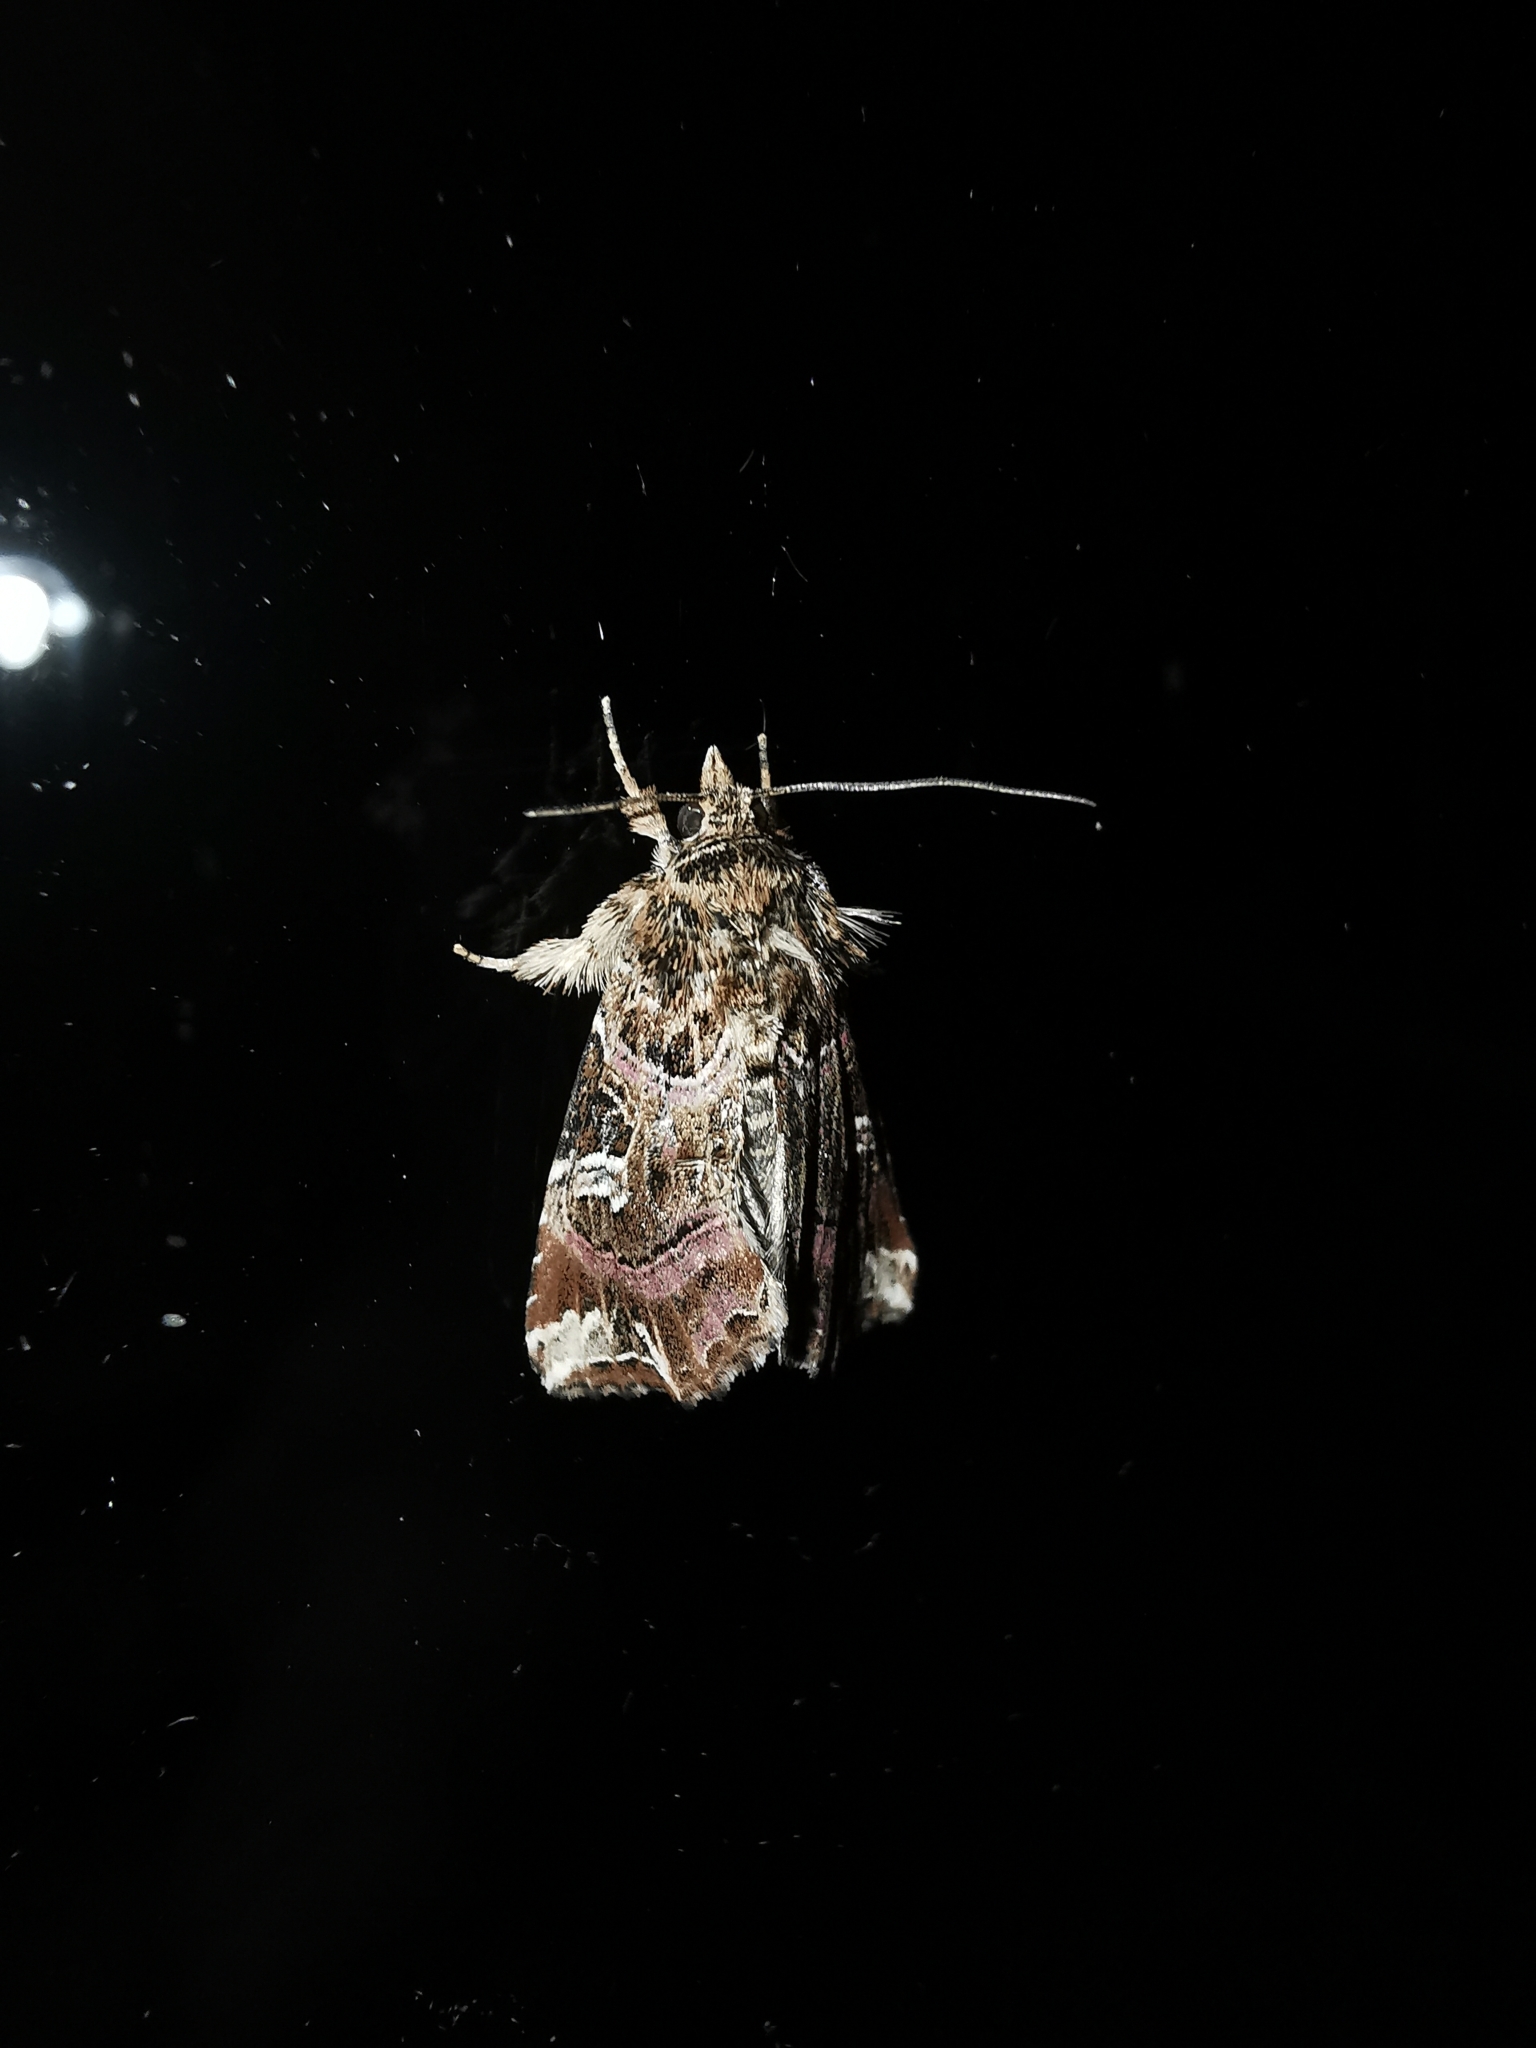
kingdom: Animalia
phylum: Arthropoda
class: Insecta
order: Lepidoptera
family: Noctuidae
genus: Callopistria
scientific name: Callopistria juventina
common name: Latin
